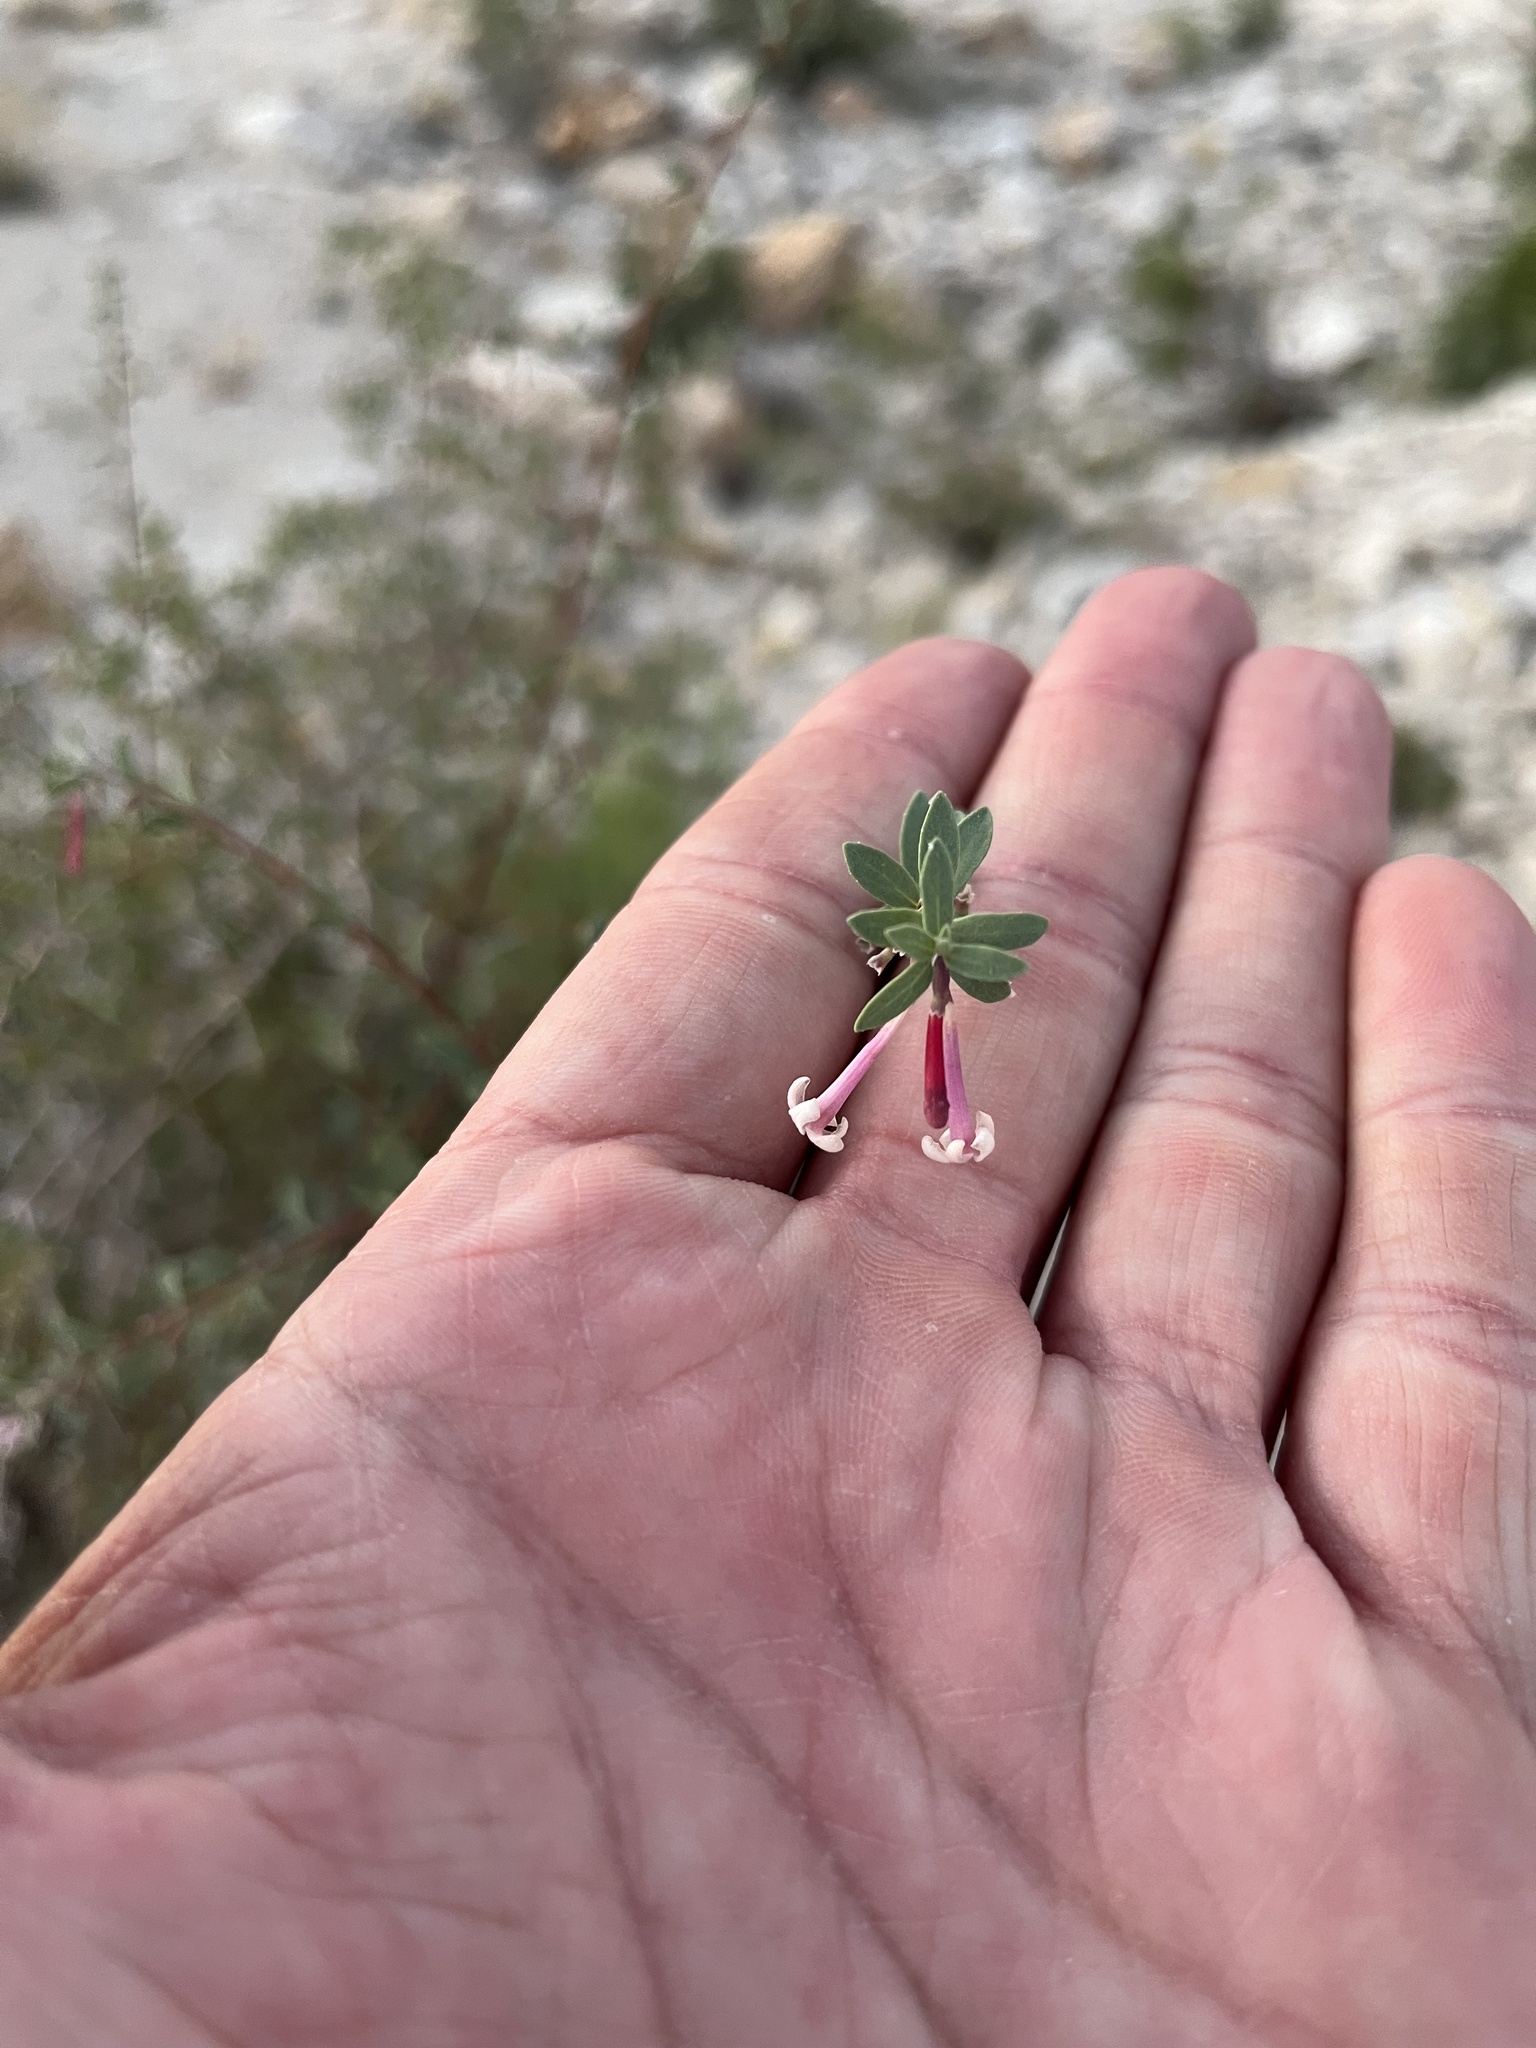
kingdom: Plantae
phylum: Tracheophyta
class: Magnoliopsida
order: Dipsacales
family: Caprifoliaceae
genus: Symphoricarpos
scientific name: Symphoricarpos longiflorus
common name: Fragrant snowberry
